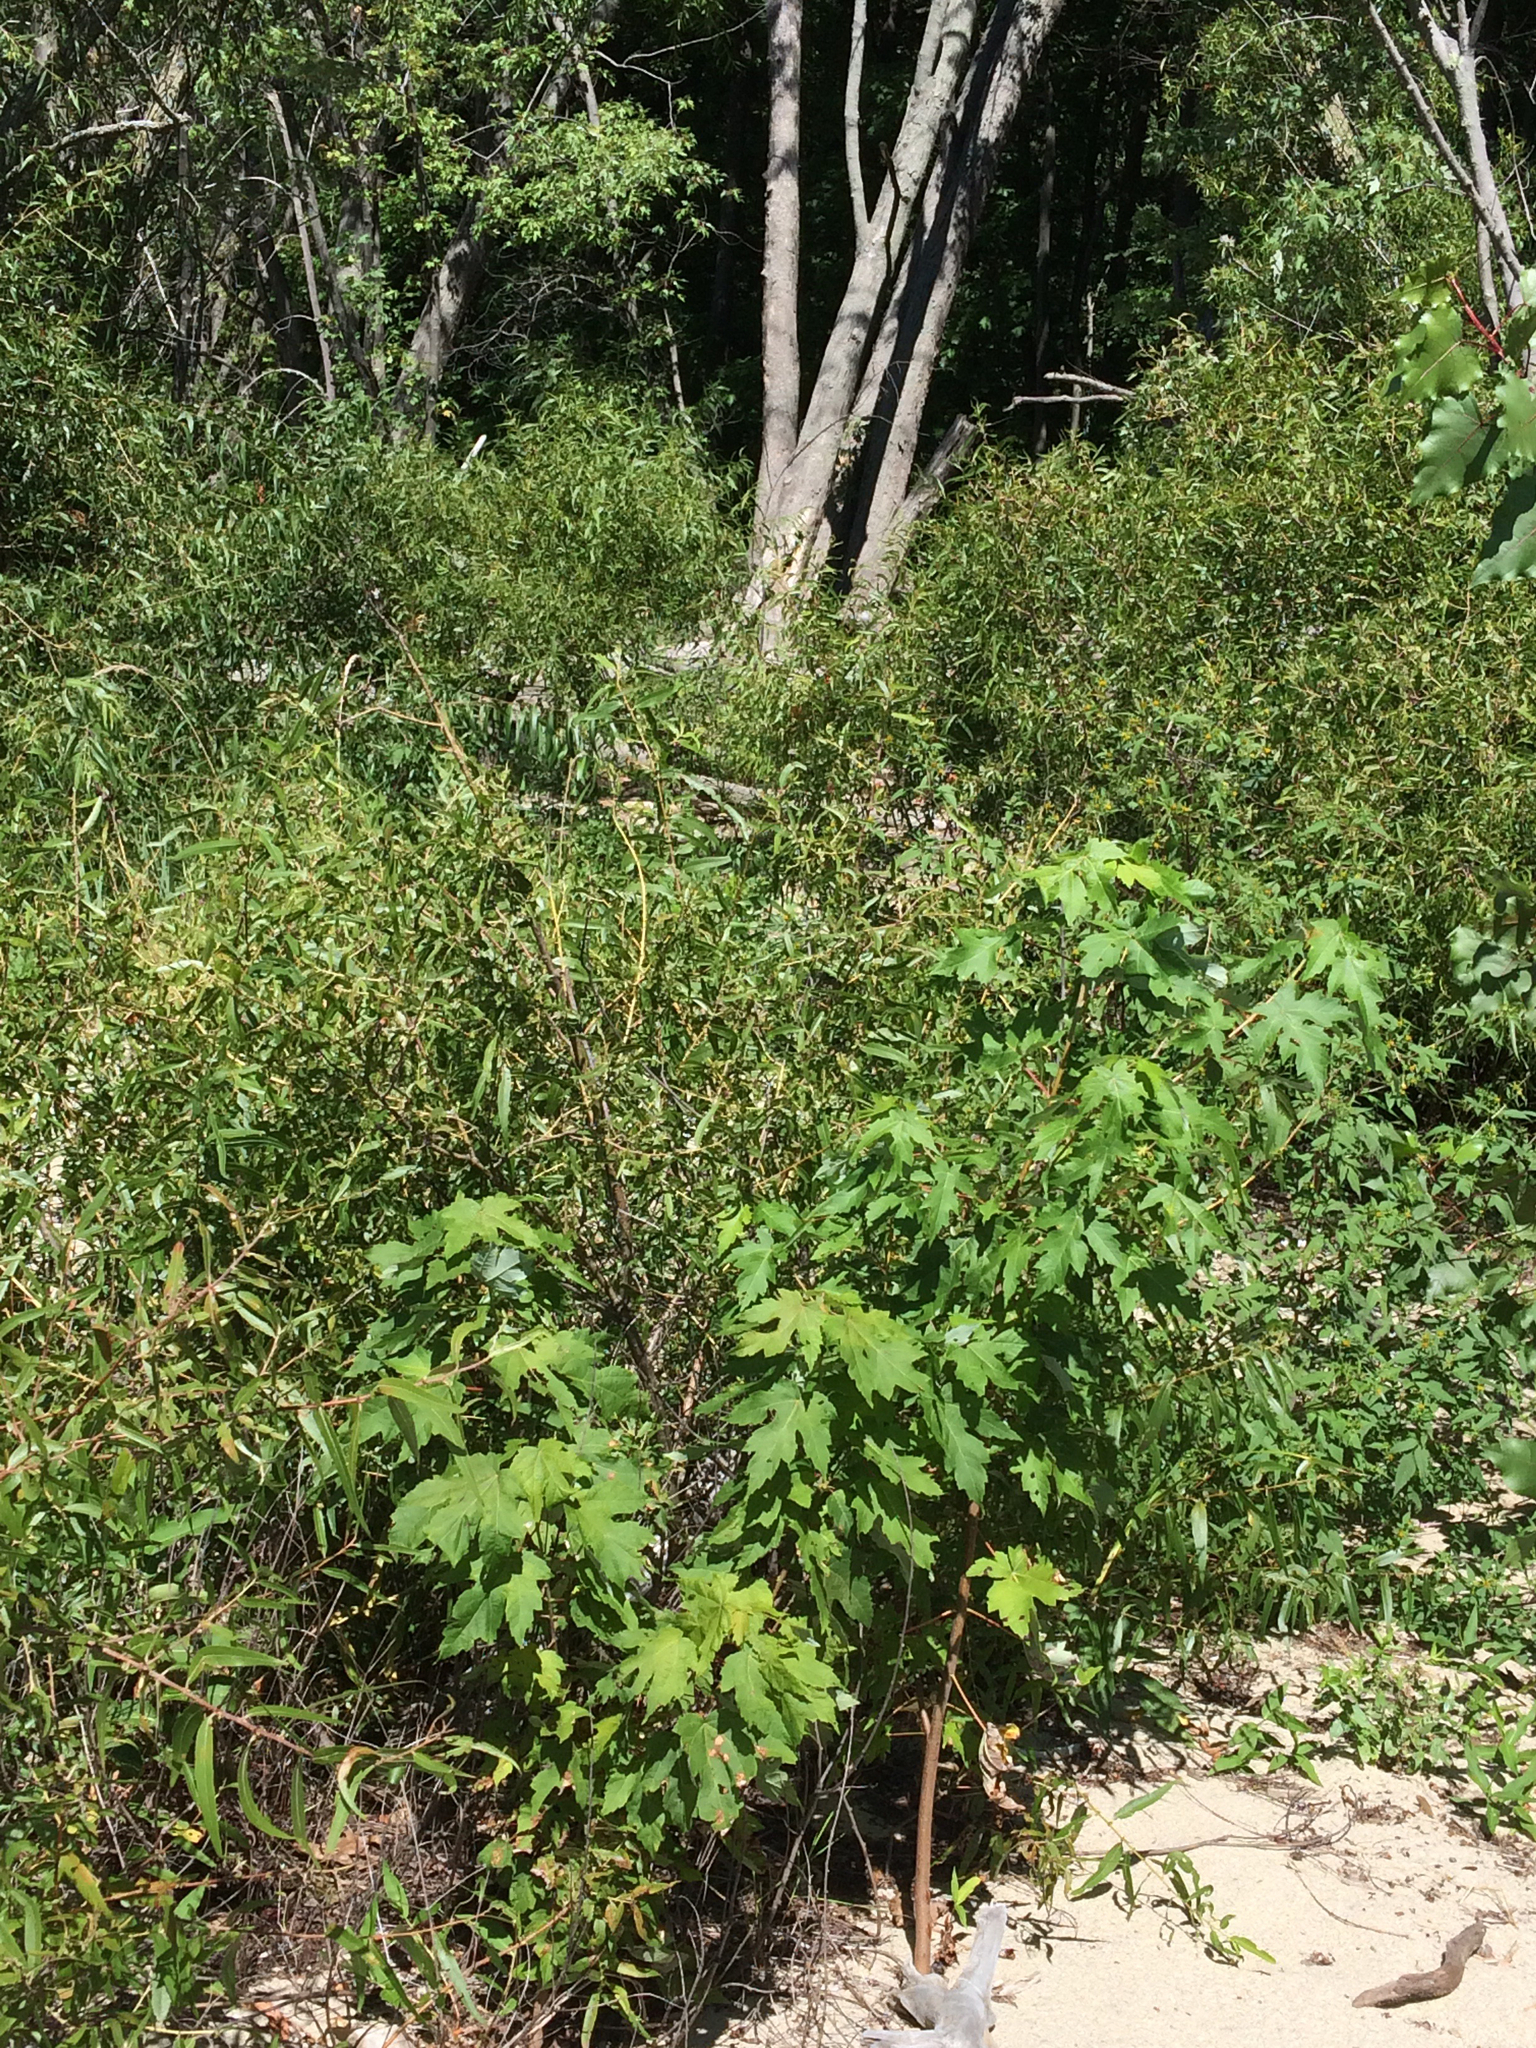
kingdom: Plantae
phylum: Tracheophyta
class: Magnoliopsida
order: Sapindales
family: Sapindaceae
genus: Acer
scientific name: Acer saccharinum
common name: Silver maple
